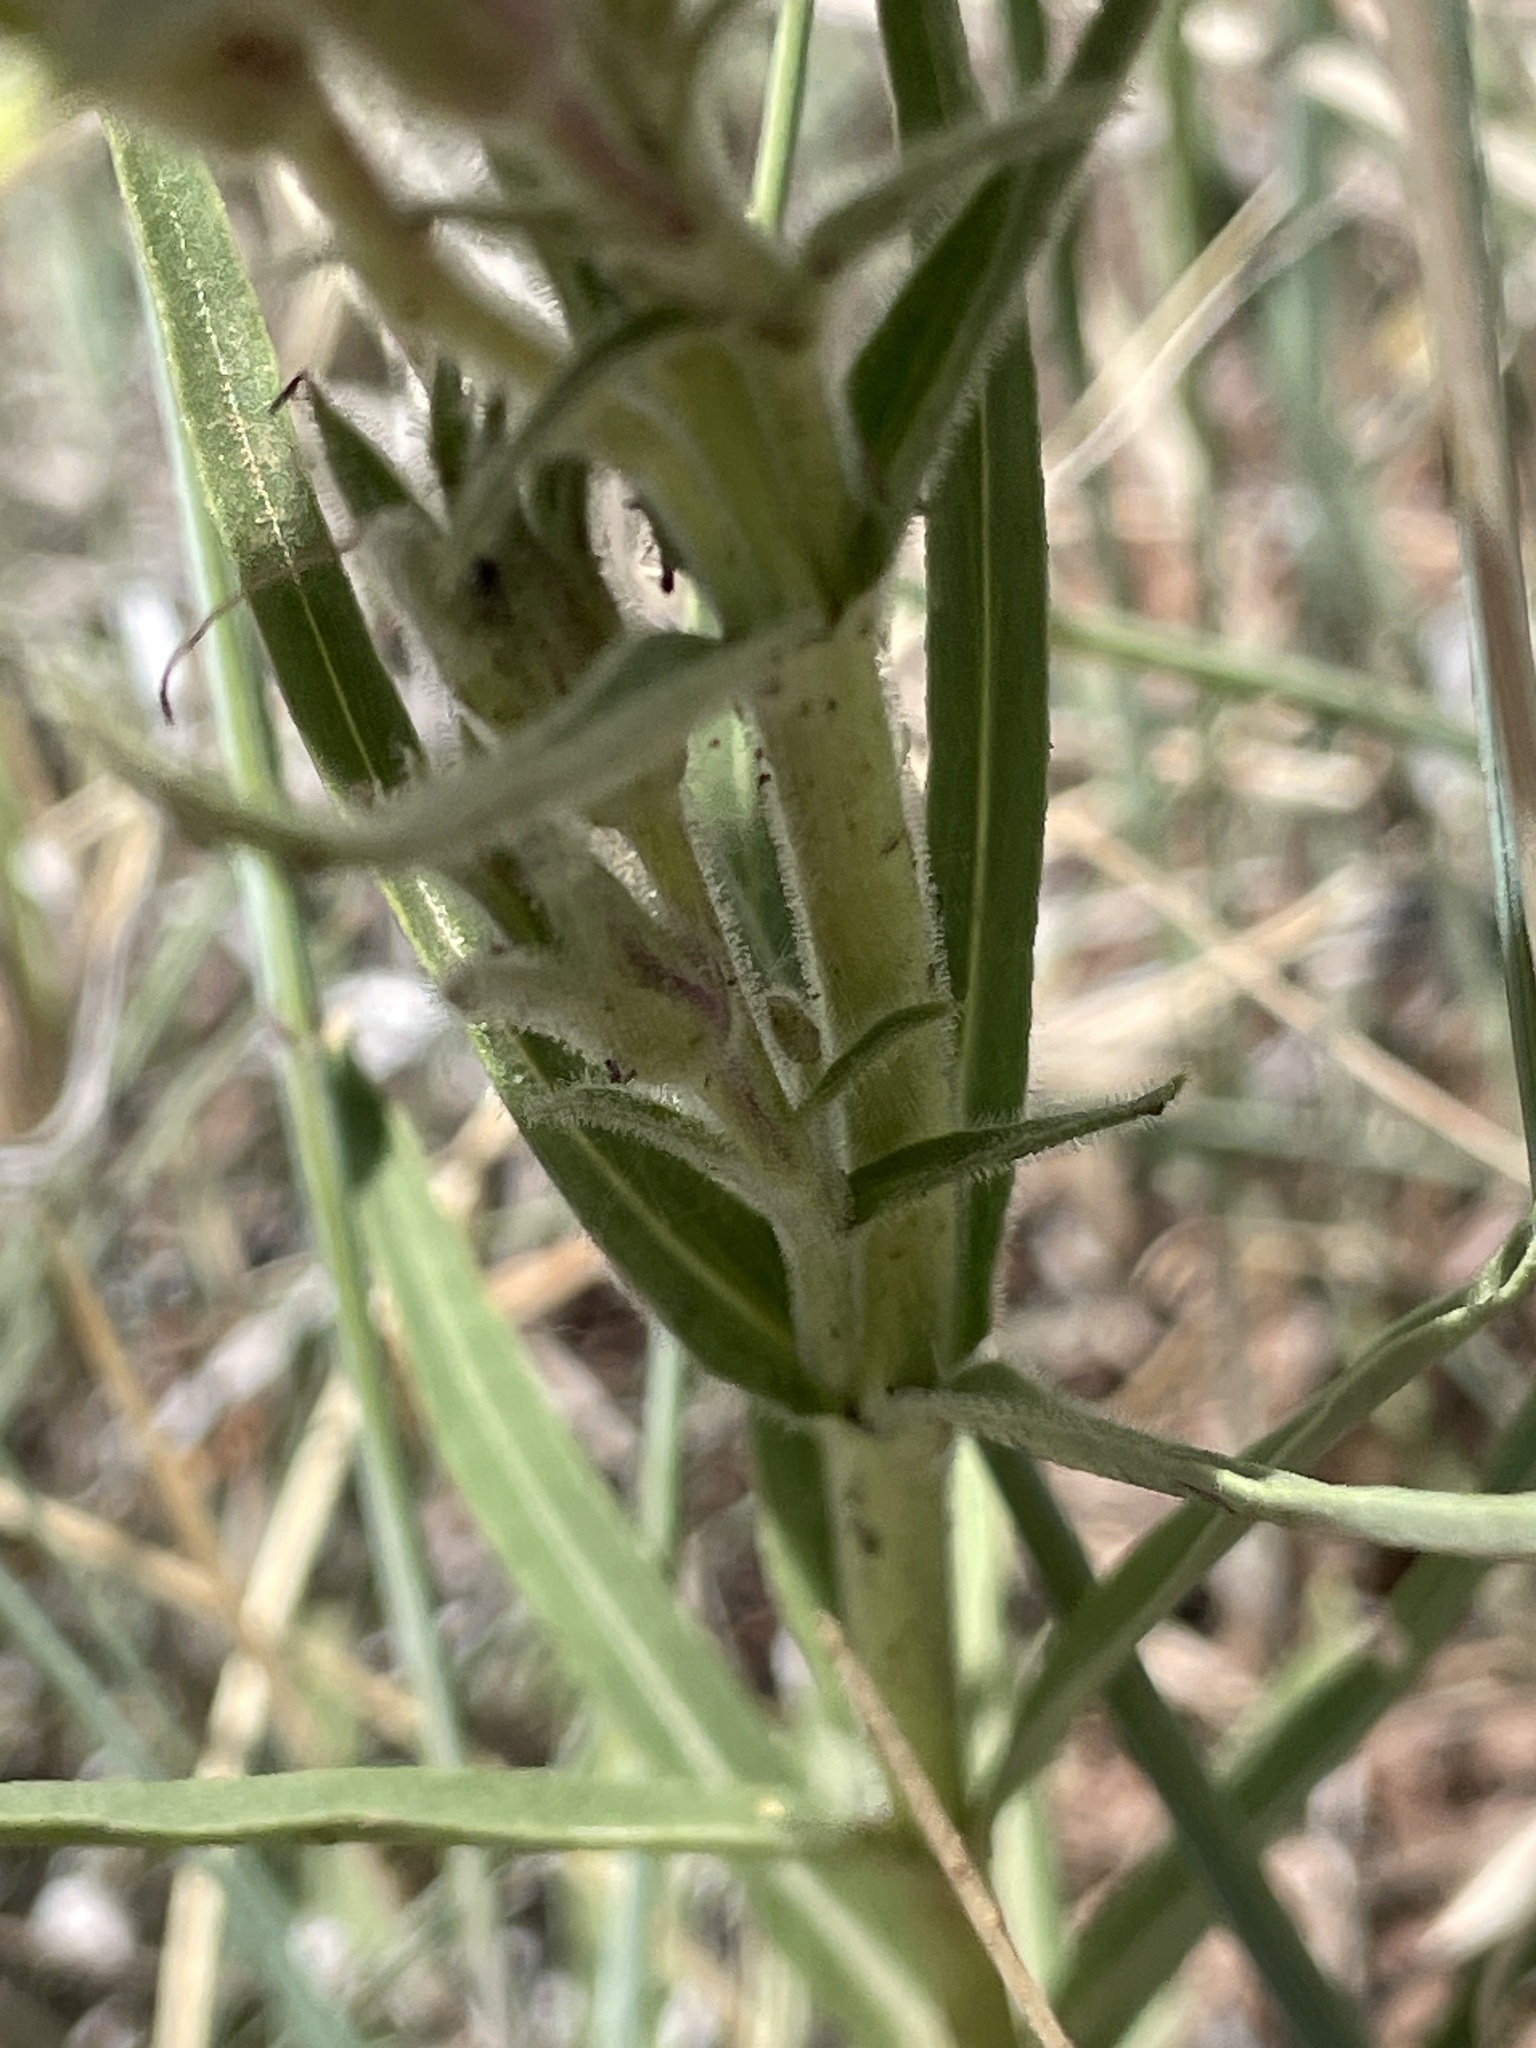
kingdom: Plantae
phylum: Tracheophyta
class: Magnoliopsida
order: Lamiales
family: Plantaginaceae
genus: Penstemon
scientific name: Penstemon jamesii
